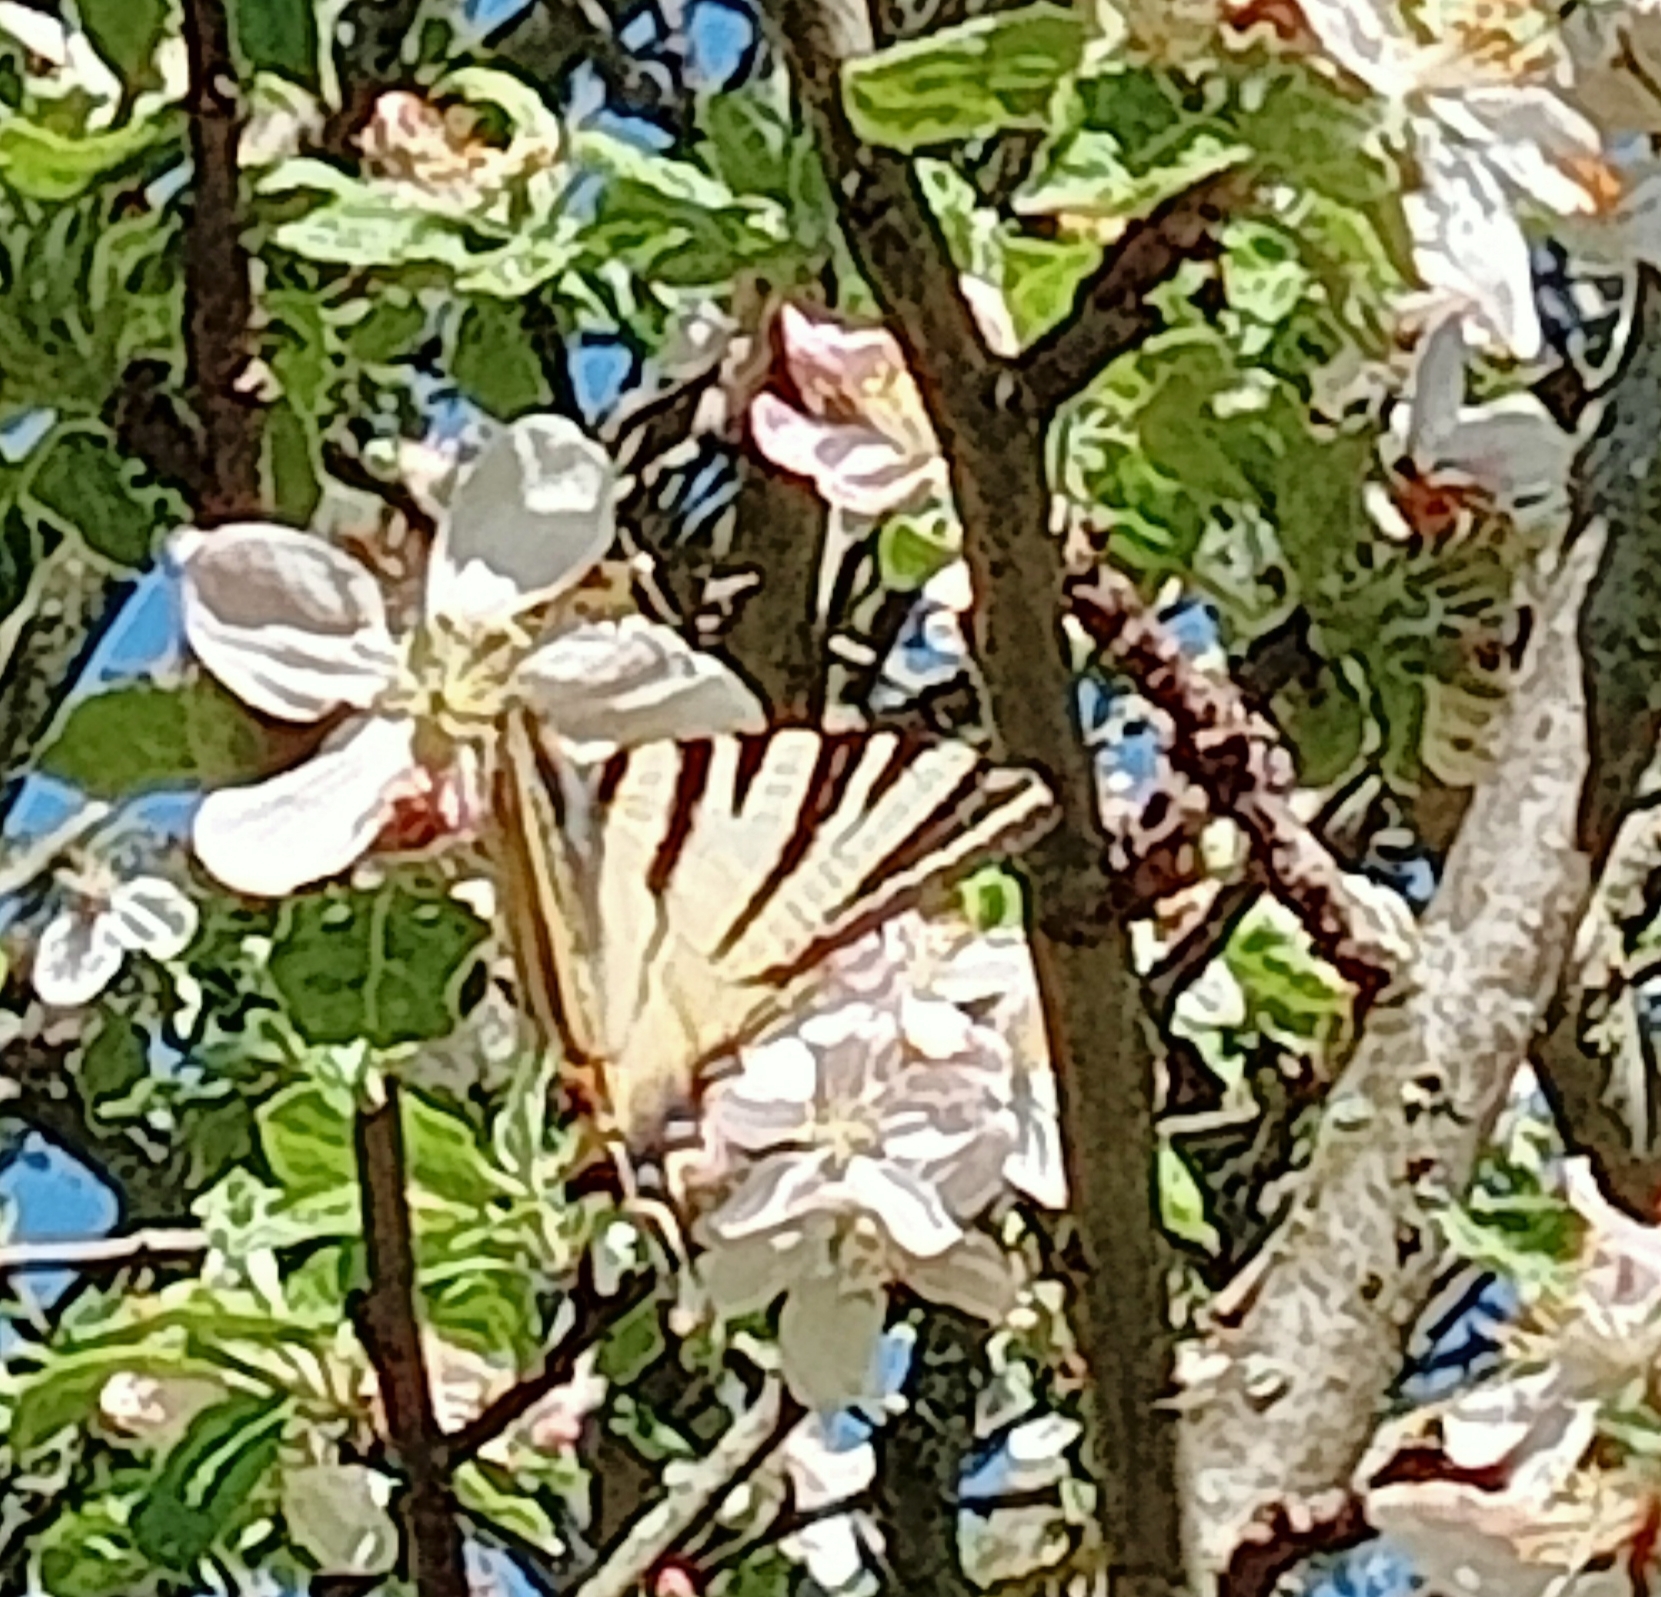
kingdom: Animalia
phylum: Arthropoda
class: Insecta
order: Lepidoptera
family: Papilionidae
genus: Iphiclides
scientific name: Iphiclides podalirius
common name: Scarce swallowtail
